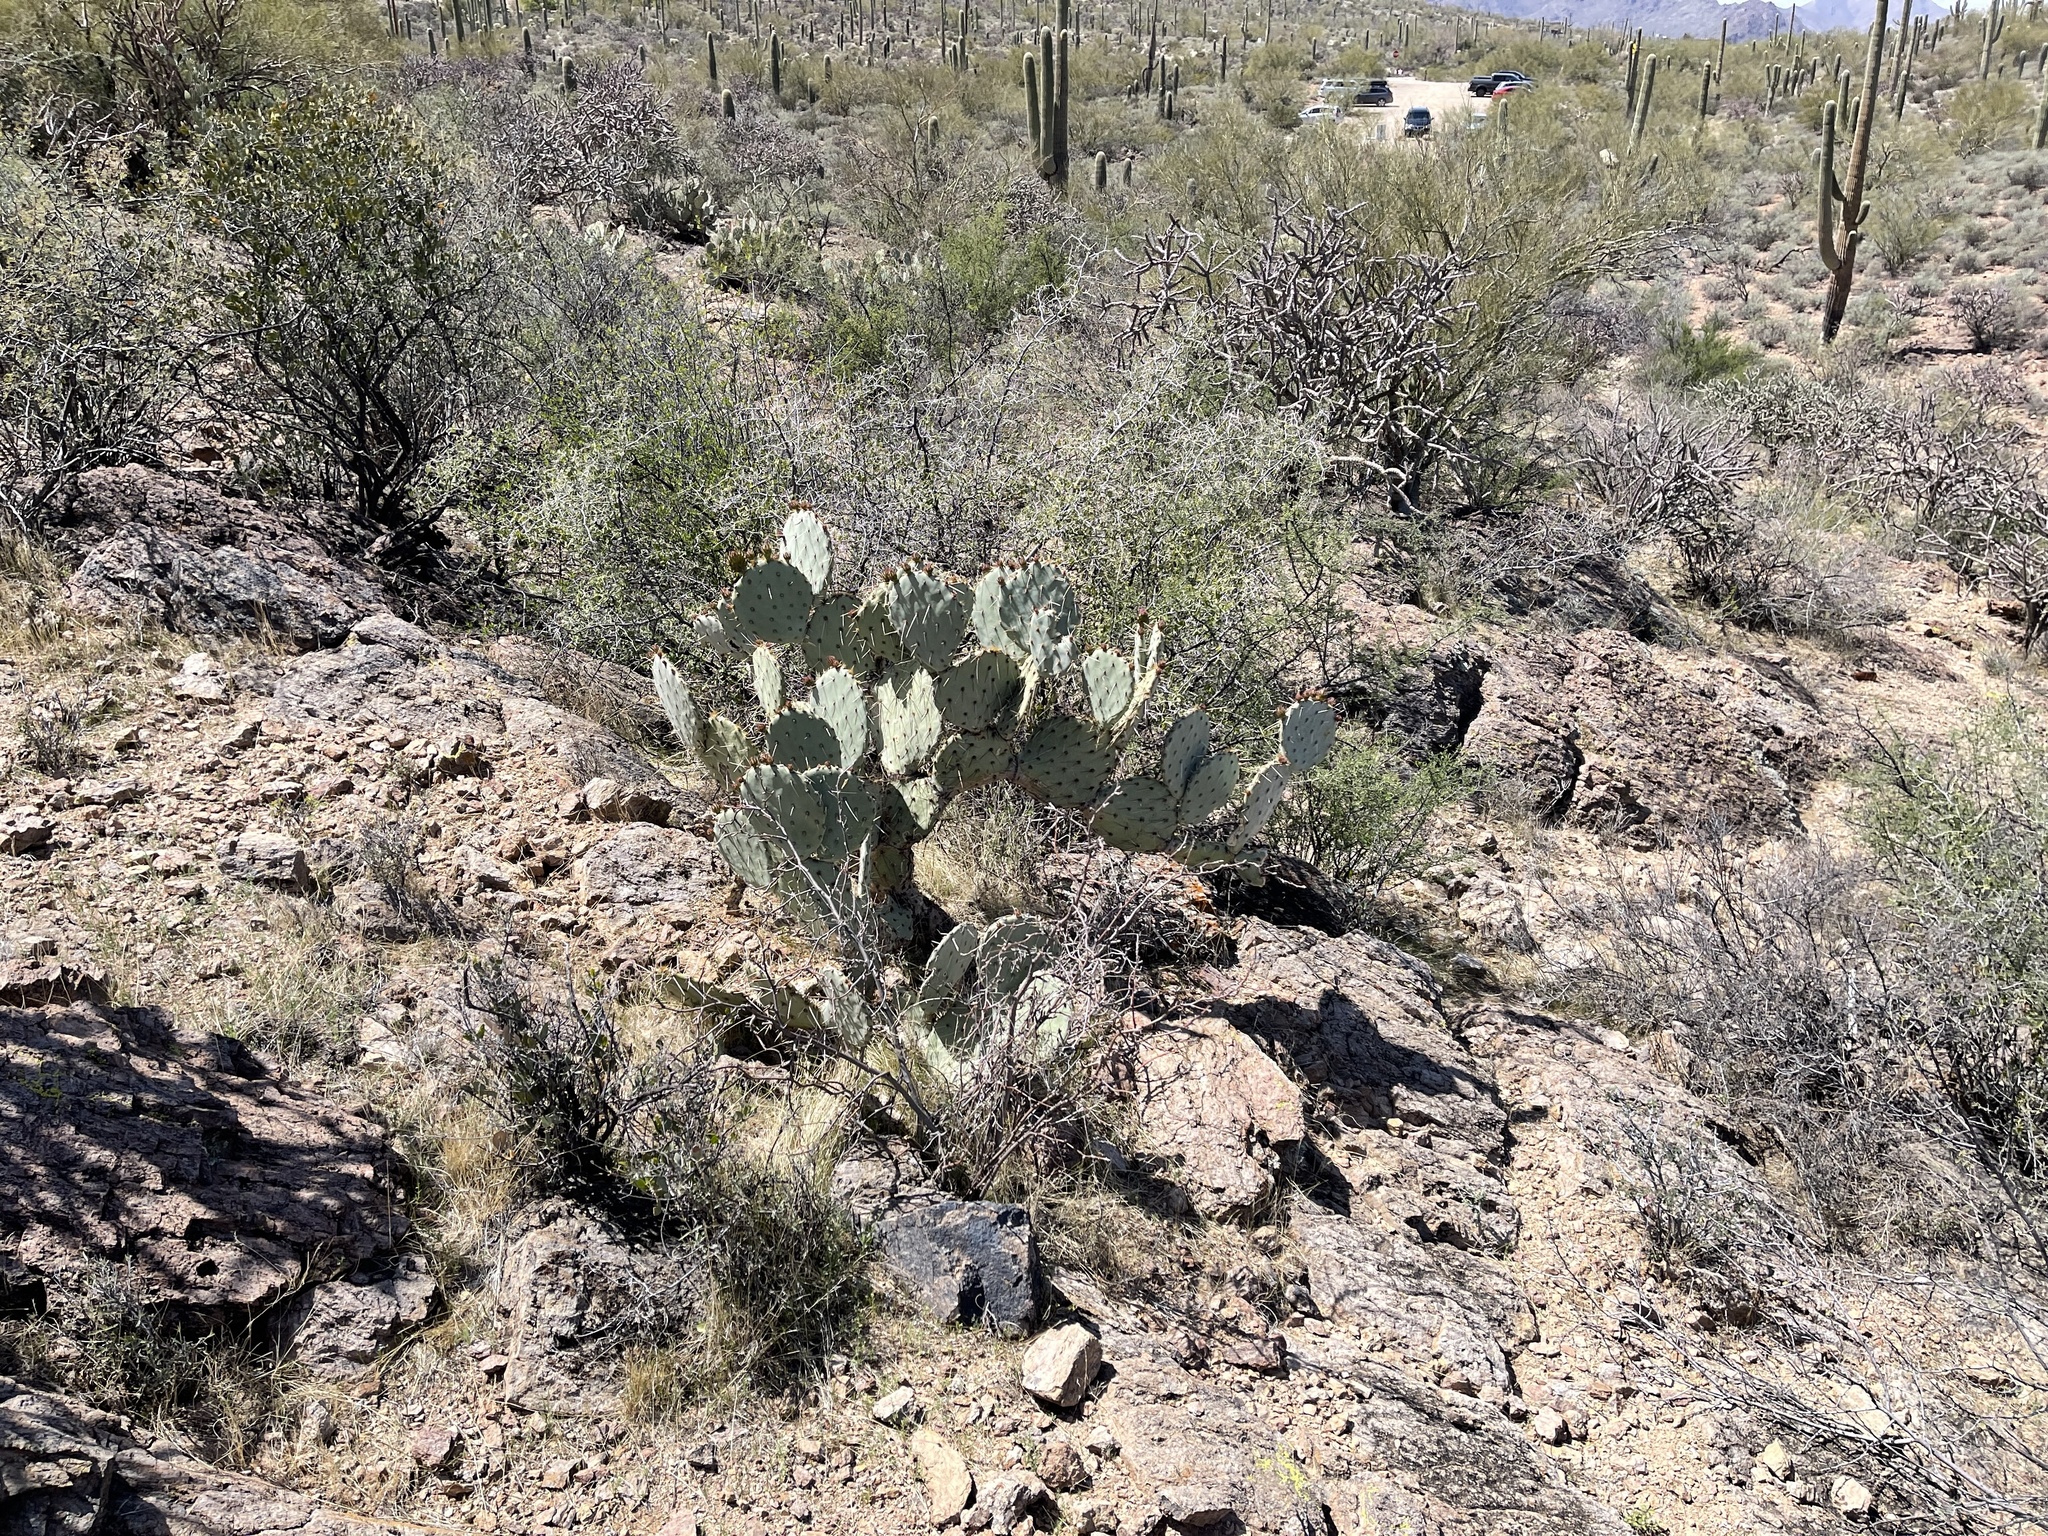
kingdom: Plantae
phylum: Tracheophyta
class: Magnoliopsida
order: Caryophyllales
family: Cactaceae
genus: Opuntia
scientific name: Opuntia engelmannii
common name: Cactus-apple
